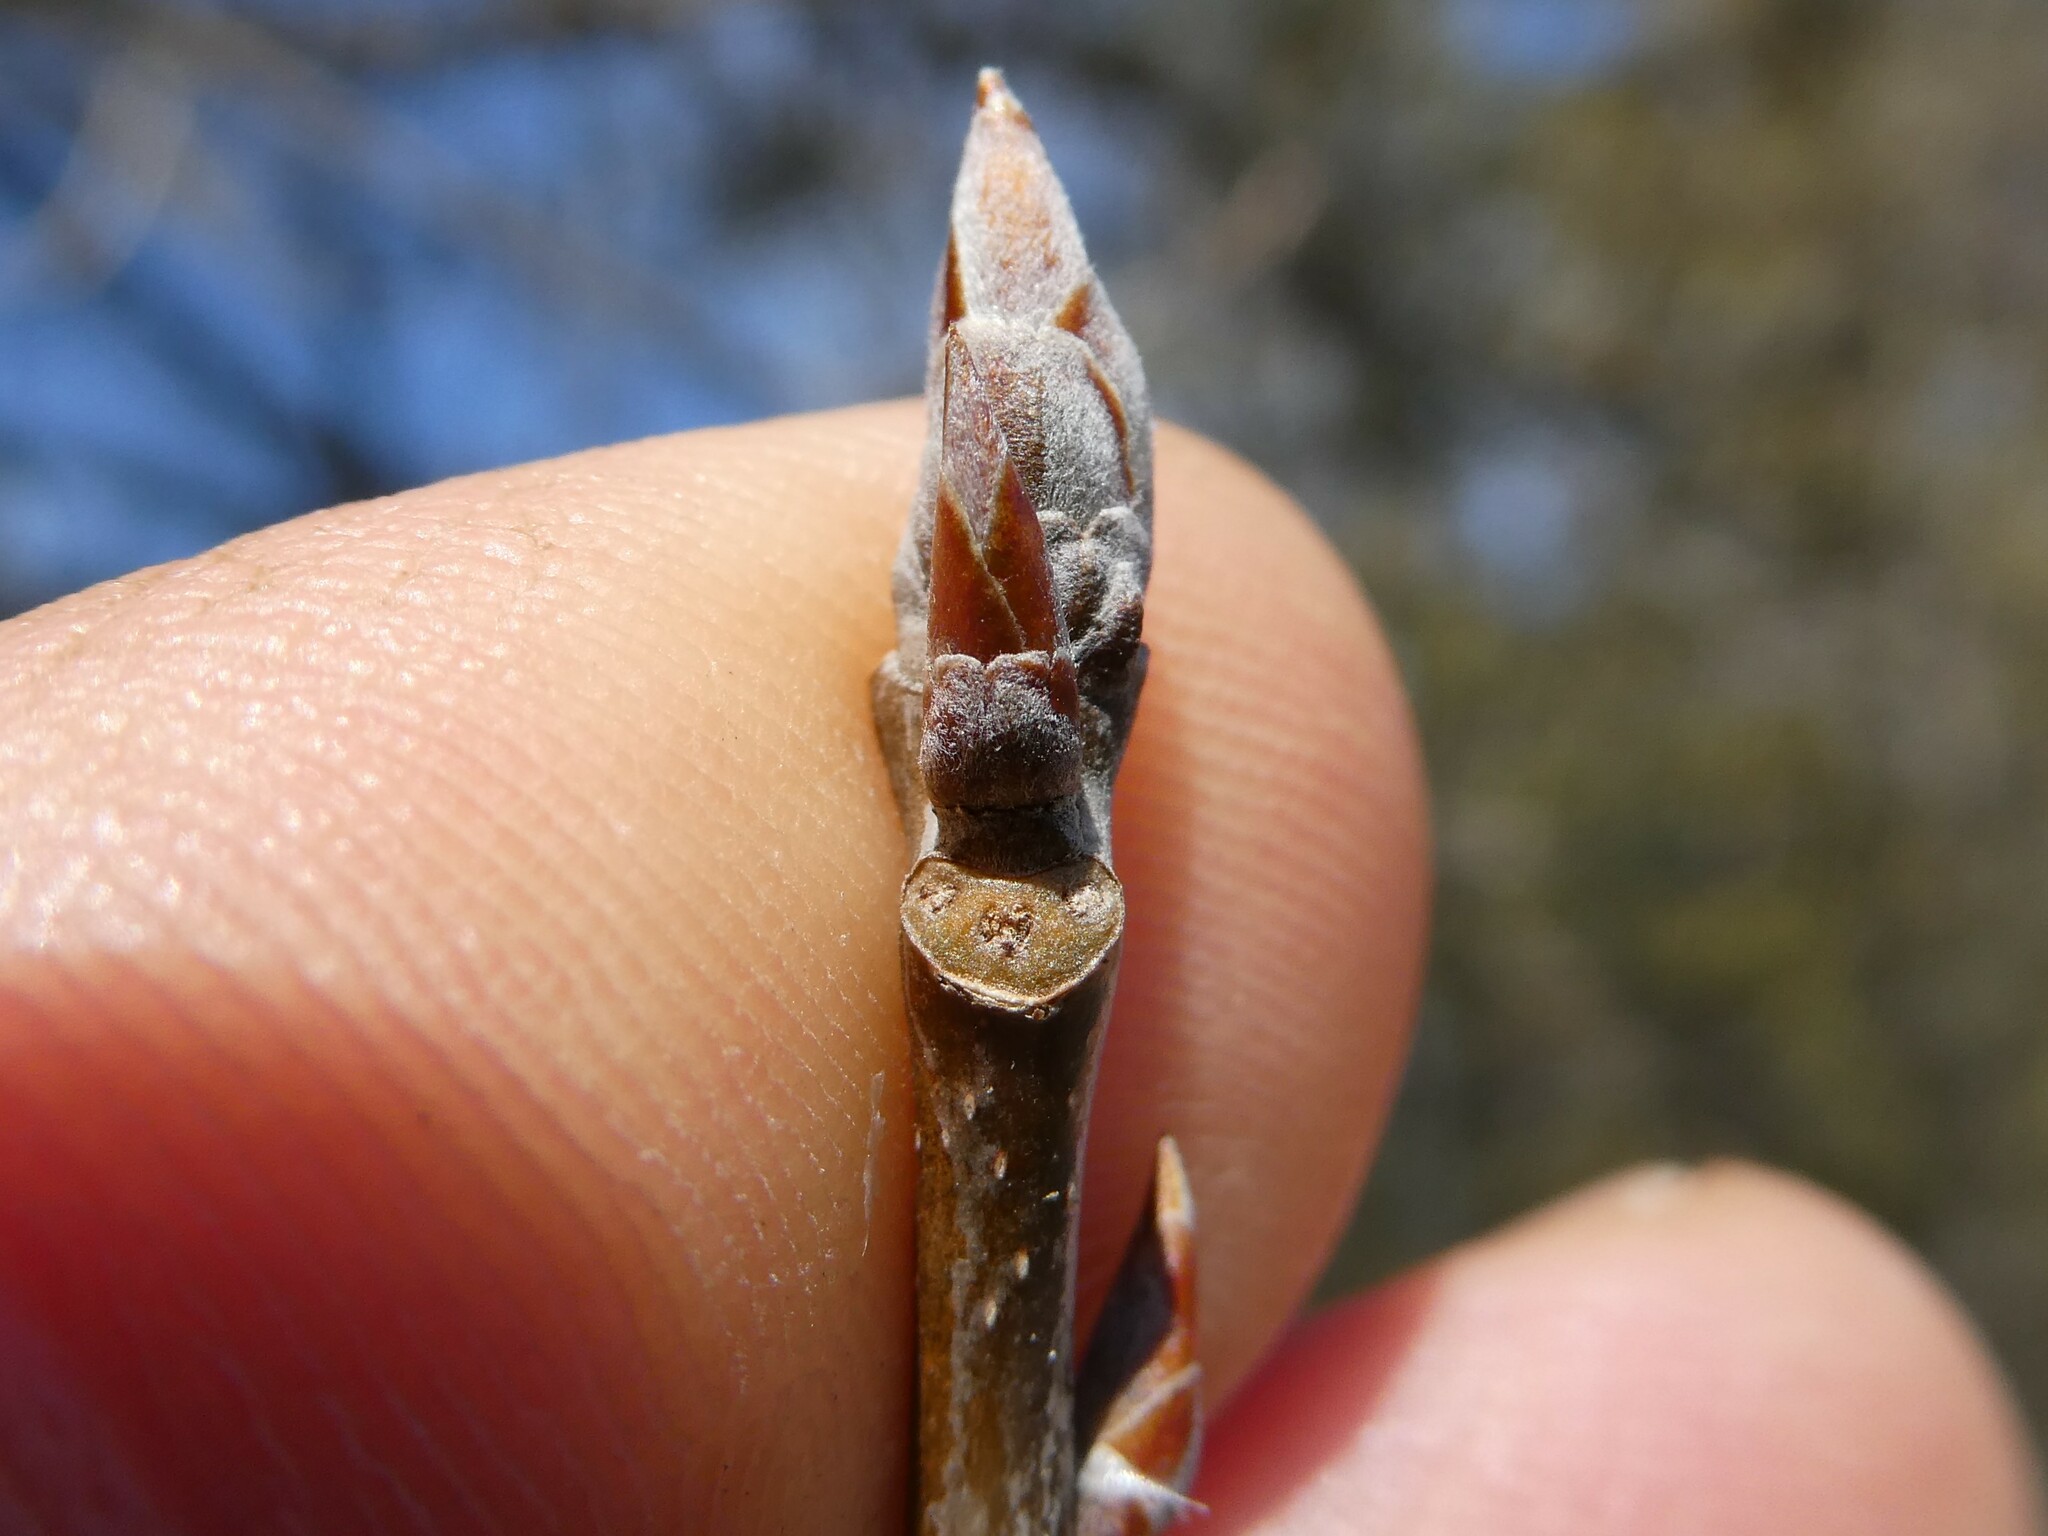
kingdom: Plantae
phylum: Tracheophyta
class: Magnoliopsida
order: Malpighiales
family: Salicaceae
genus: Populus
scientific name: Populus grandidentata
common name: Bigtooth aspen
